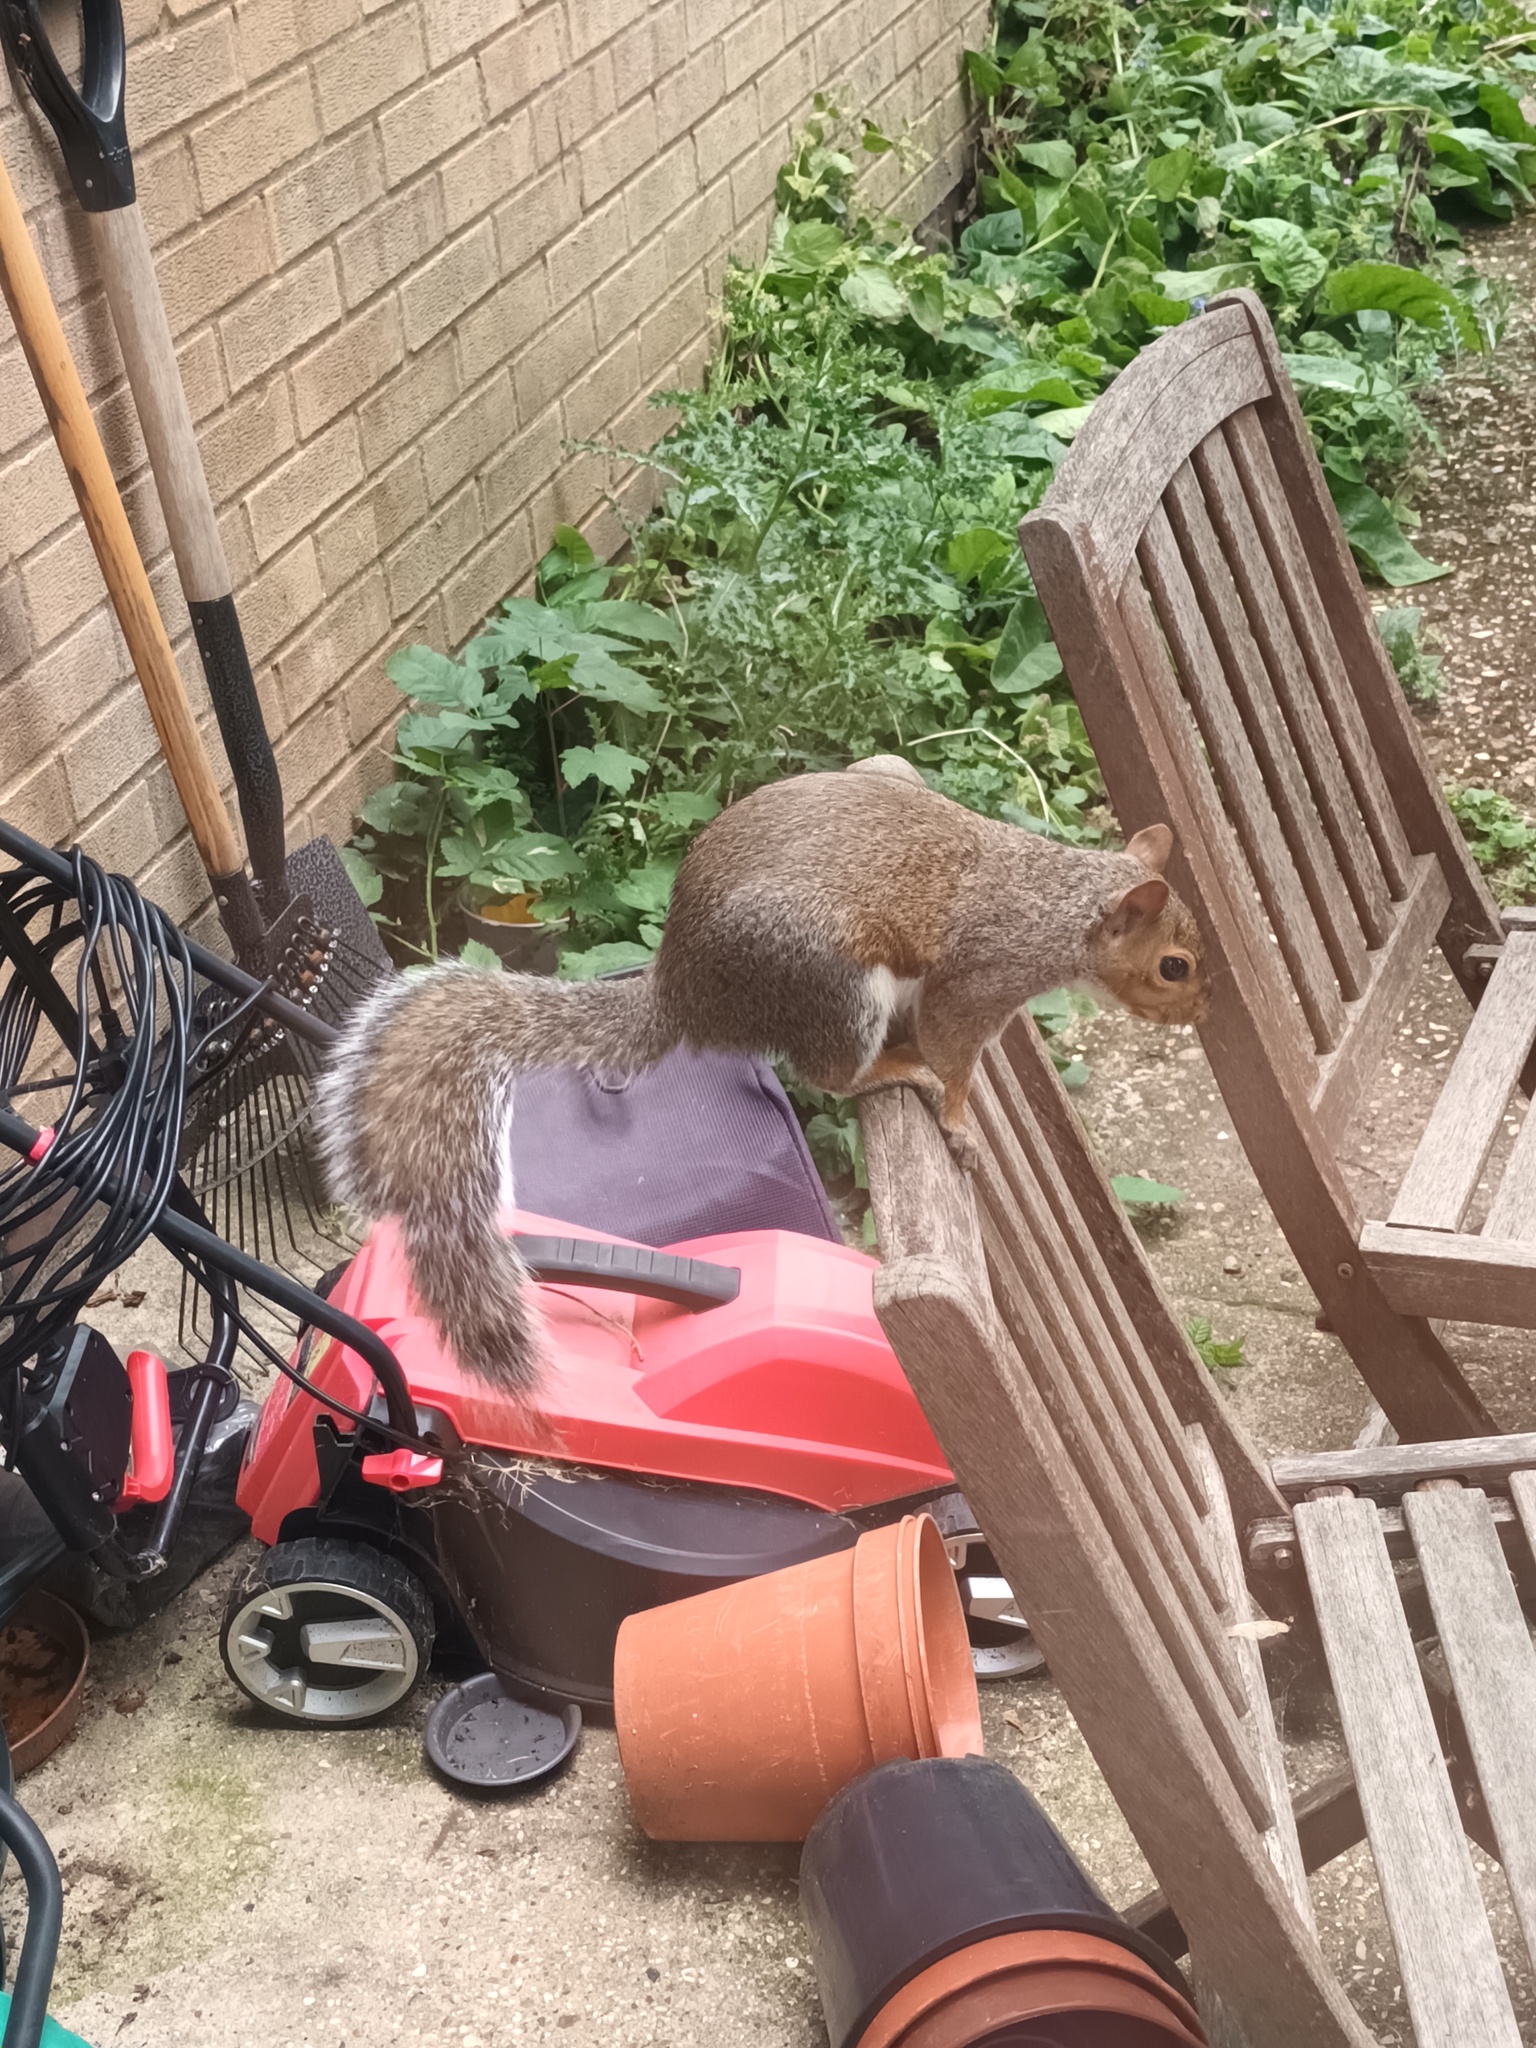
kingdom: Animalia
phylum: Chordata
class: Mammalia
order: Rodentia
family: Sciuridae
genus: Sciurus
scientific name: Sciurus carolinensis
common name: Eastern gray squirrel
